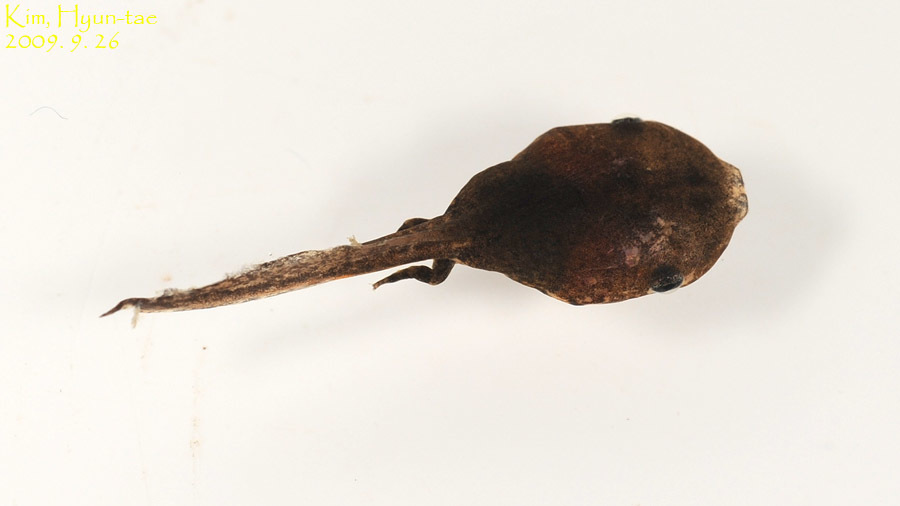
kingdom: Animalia
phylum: Chordata
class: Amphibia
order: Anura
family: Microhylidae
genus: Kaloula
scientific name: Kaloula borealis
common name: Boreal digging frog
